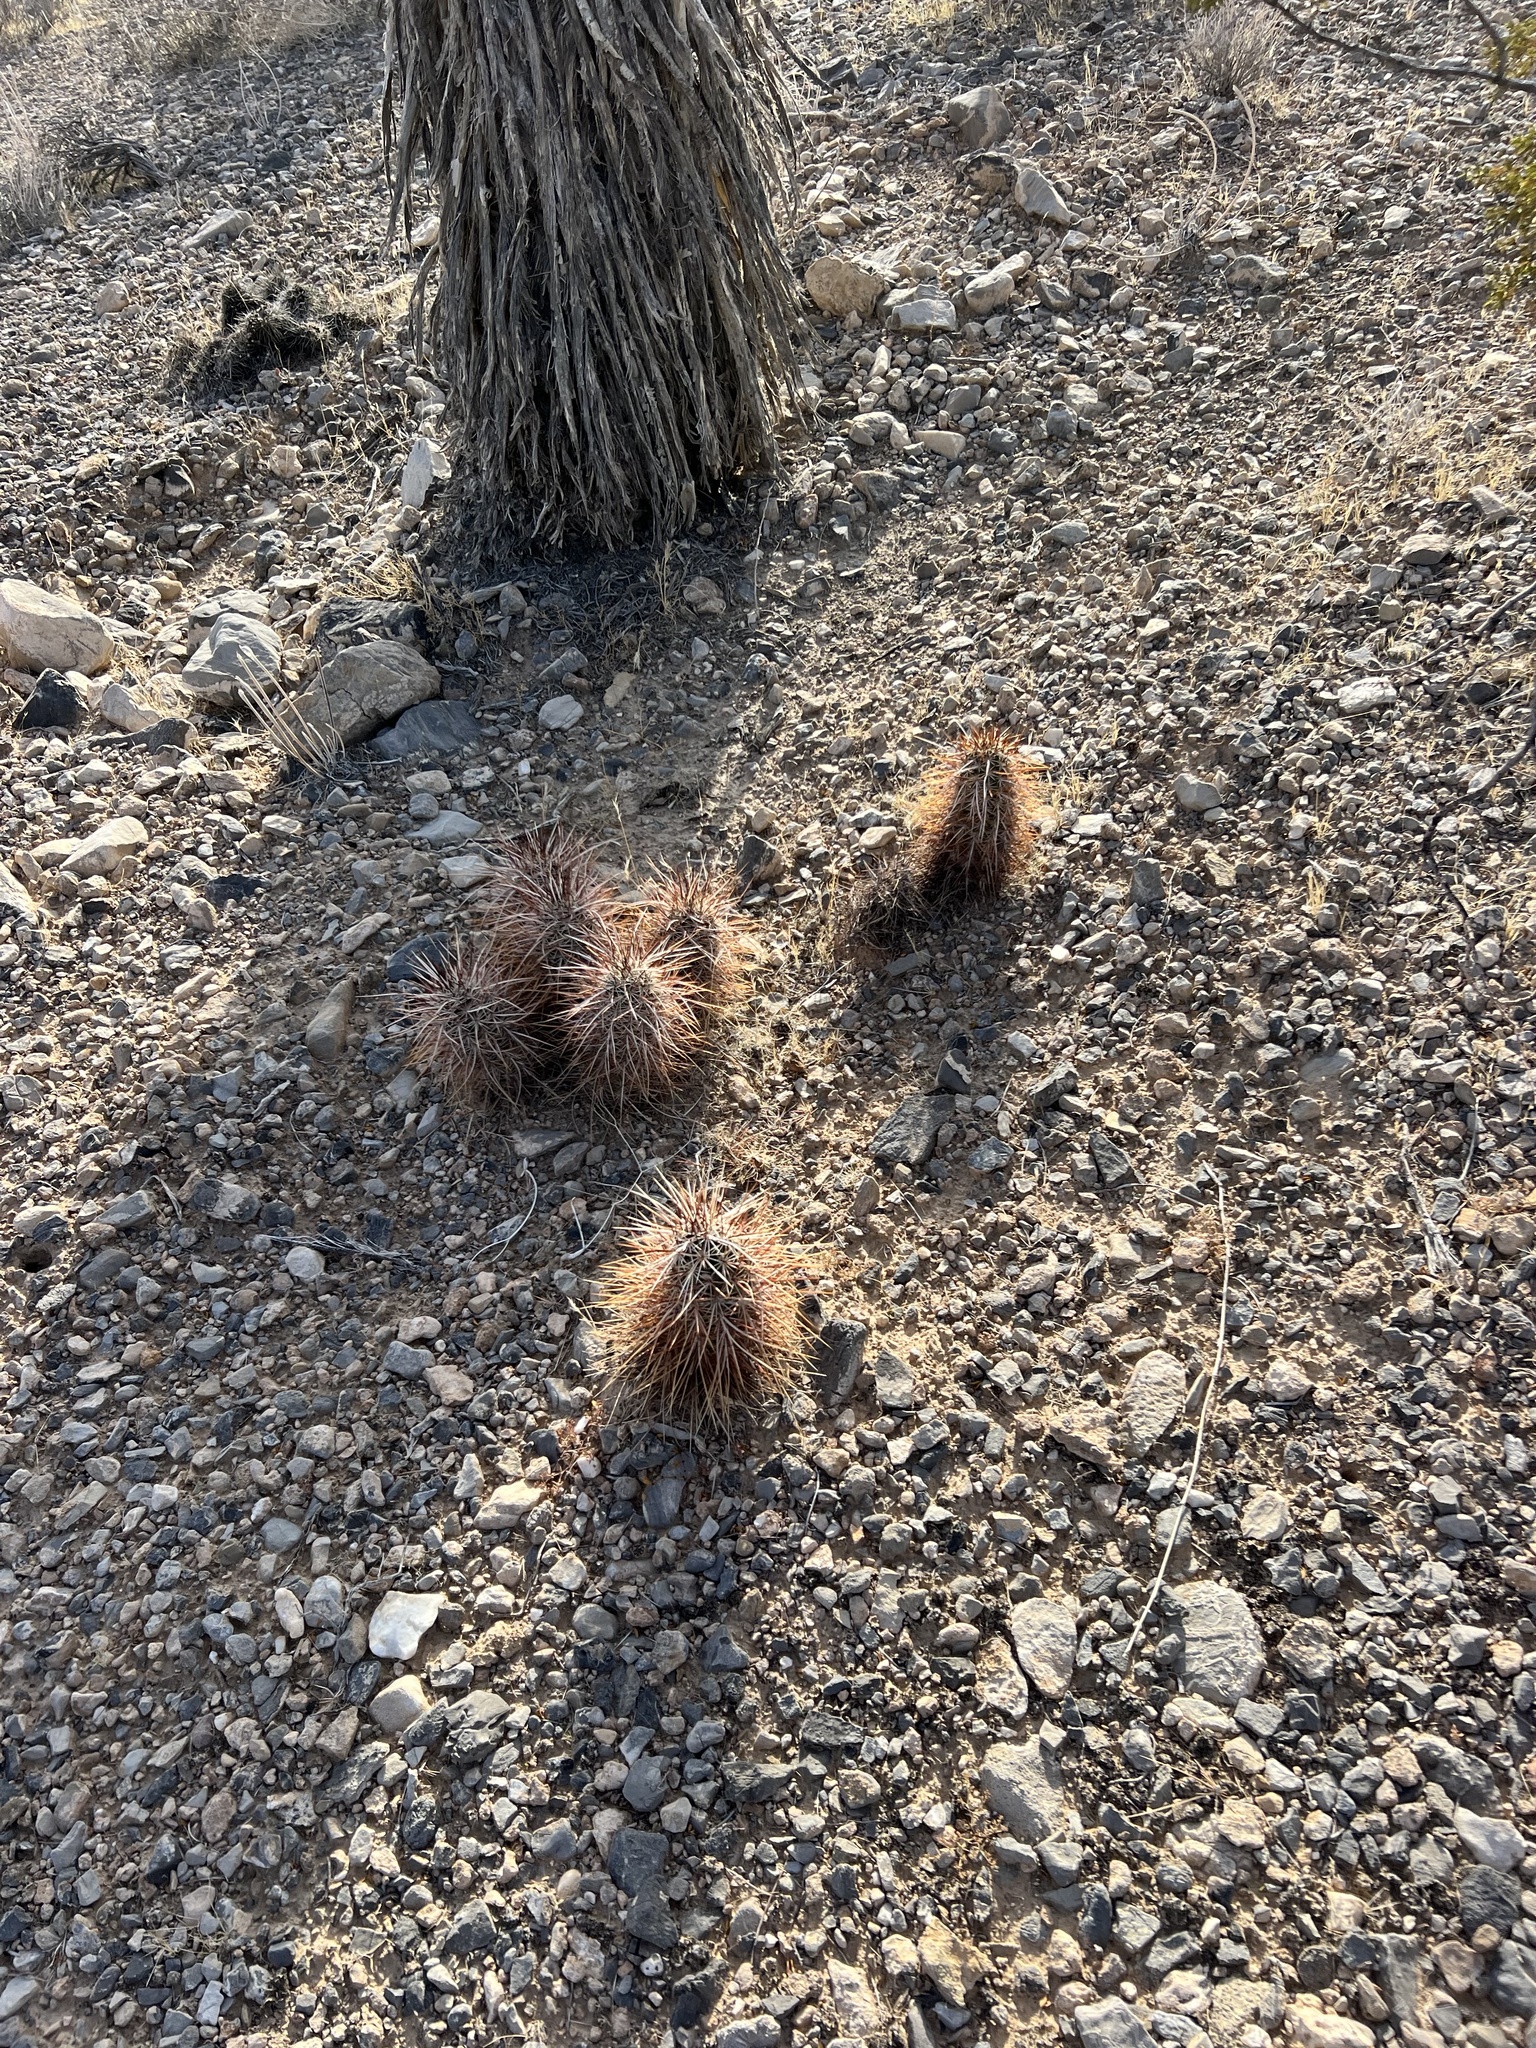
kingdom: Plantae
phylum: Tracheophyta
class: Magnoliopsida
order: Caryophyllales
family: Cactaceae
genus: Echinocereus
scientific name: Echinocereus engelmannii
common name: Engelmann's hedgehog cactus
